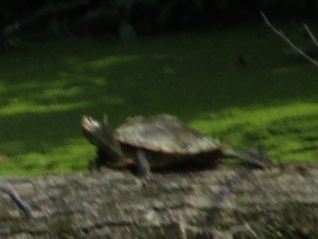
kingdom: Animalia
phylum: Chordata
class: Testudines
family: Emydidae
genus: Graptemys
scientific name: Graptemys geographica
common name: Common map turtle
